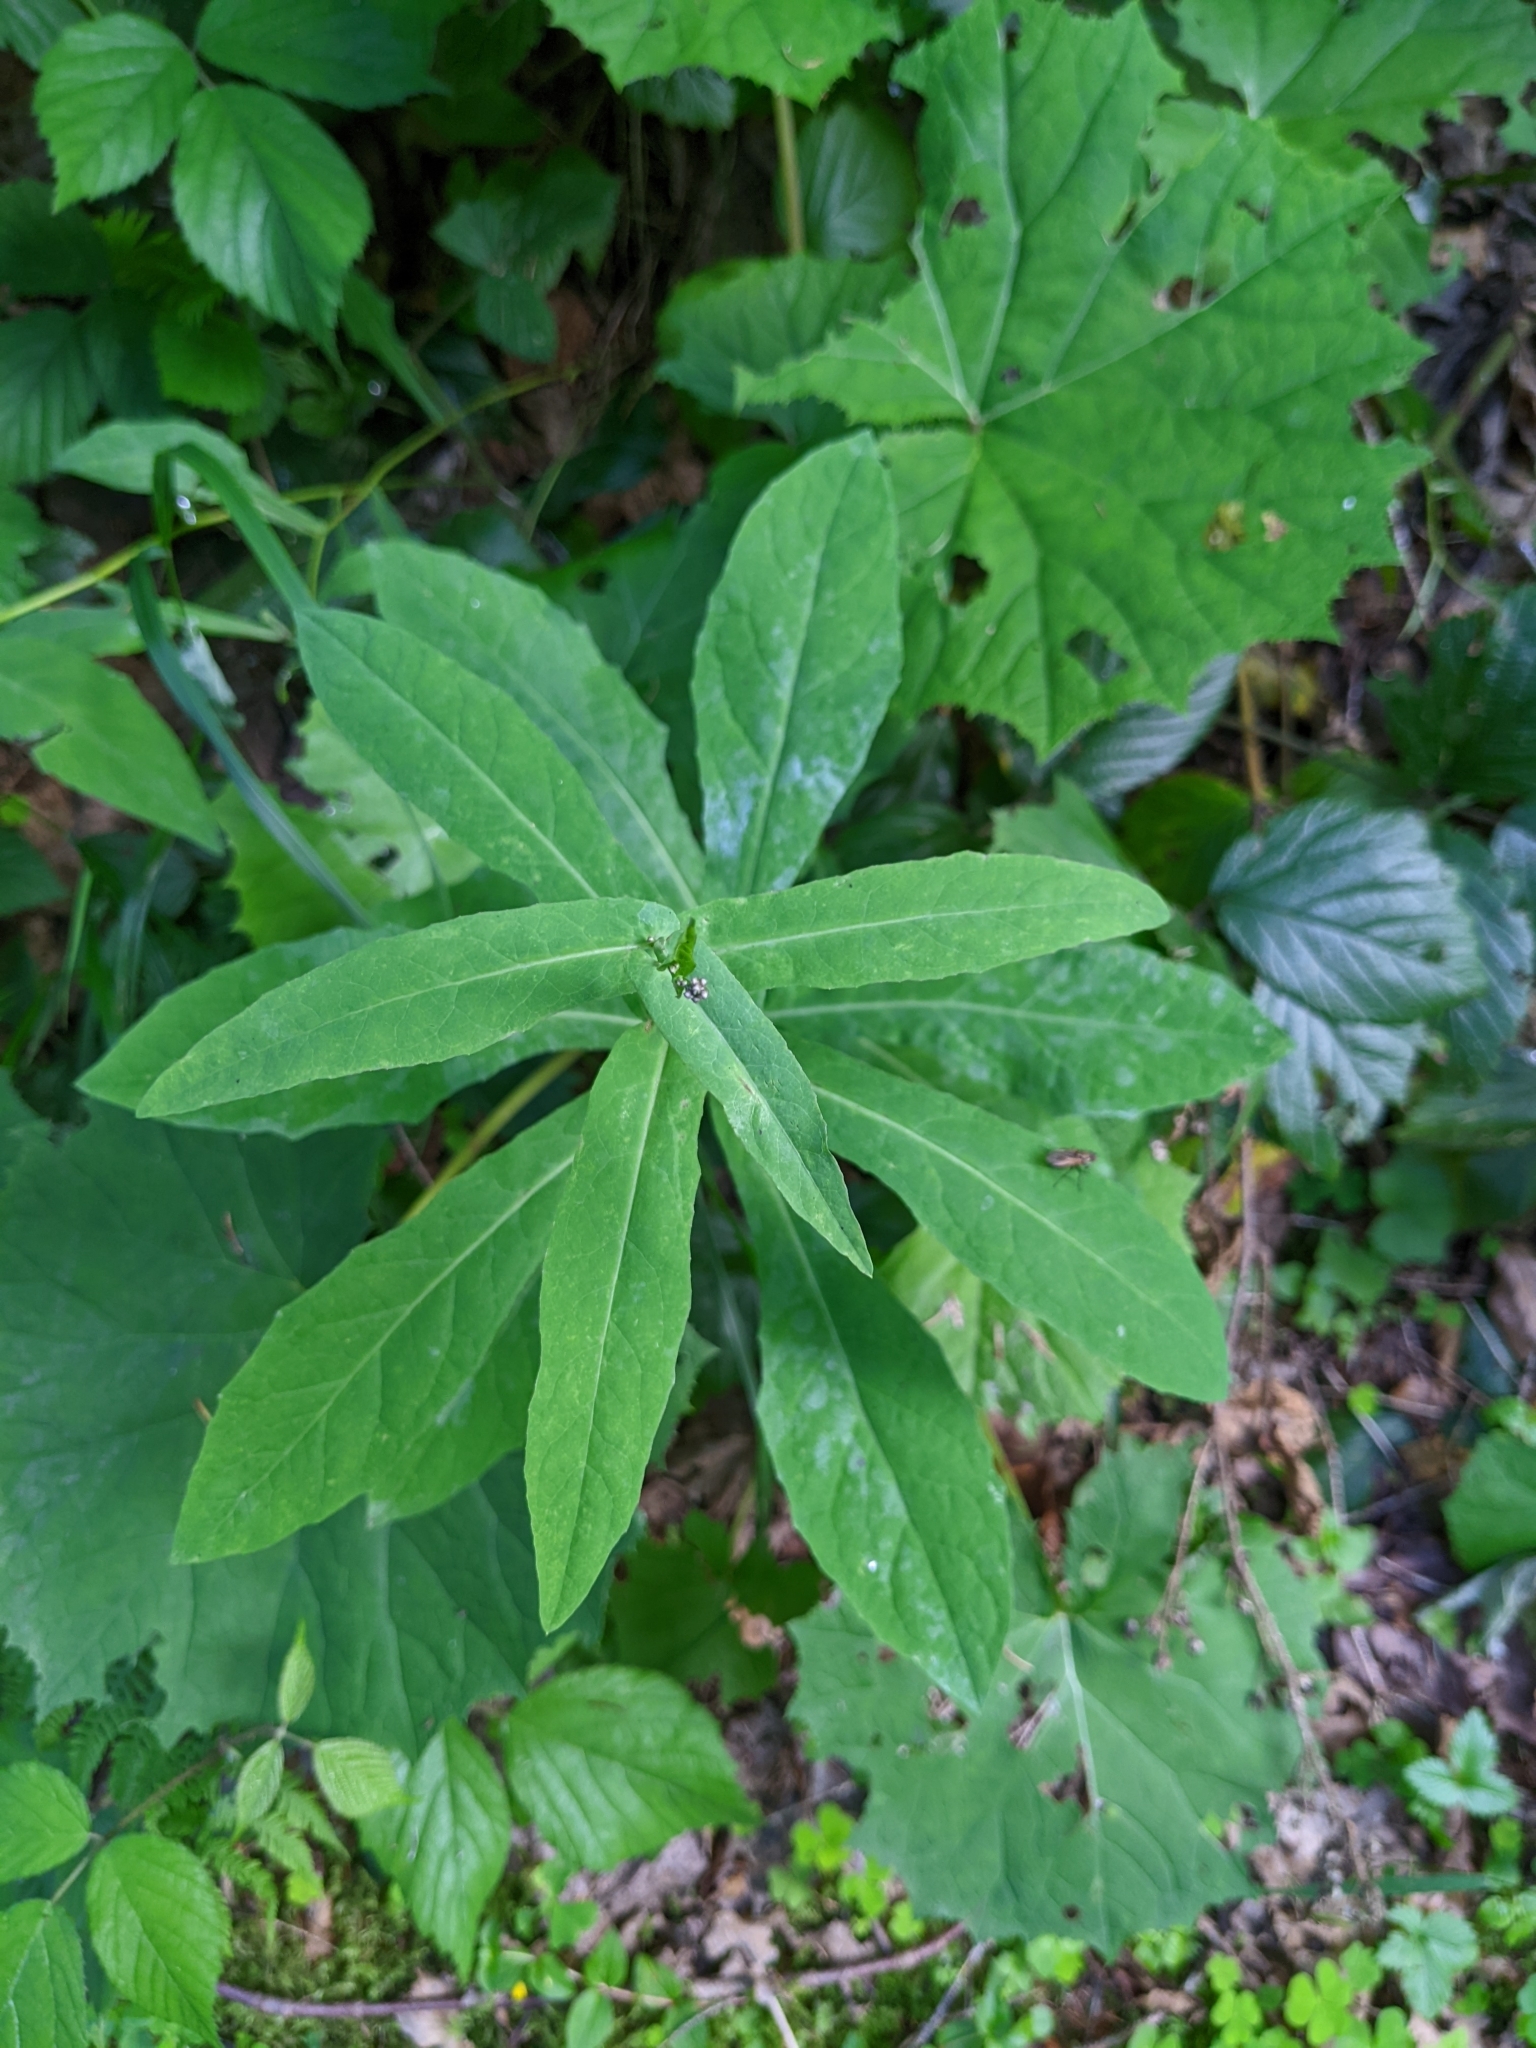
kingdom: Plantae
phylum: Tracheophyta
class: Magnoliopsida
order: Asterales
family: Asteraceae
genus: Prenanthes
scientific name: Prenanthes purpurea
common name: Purple lettuce
